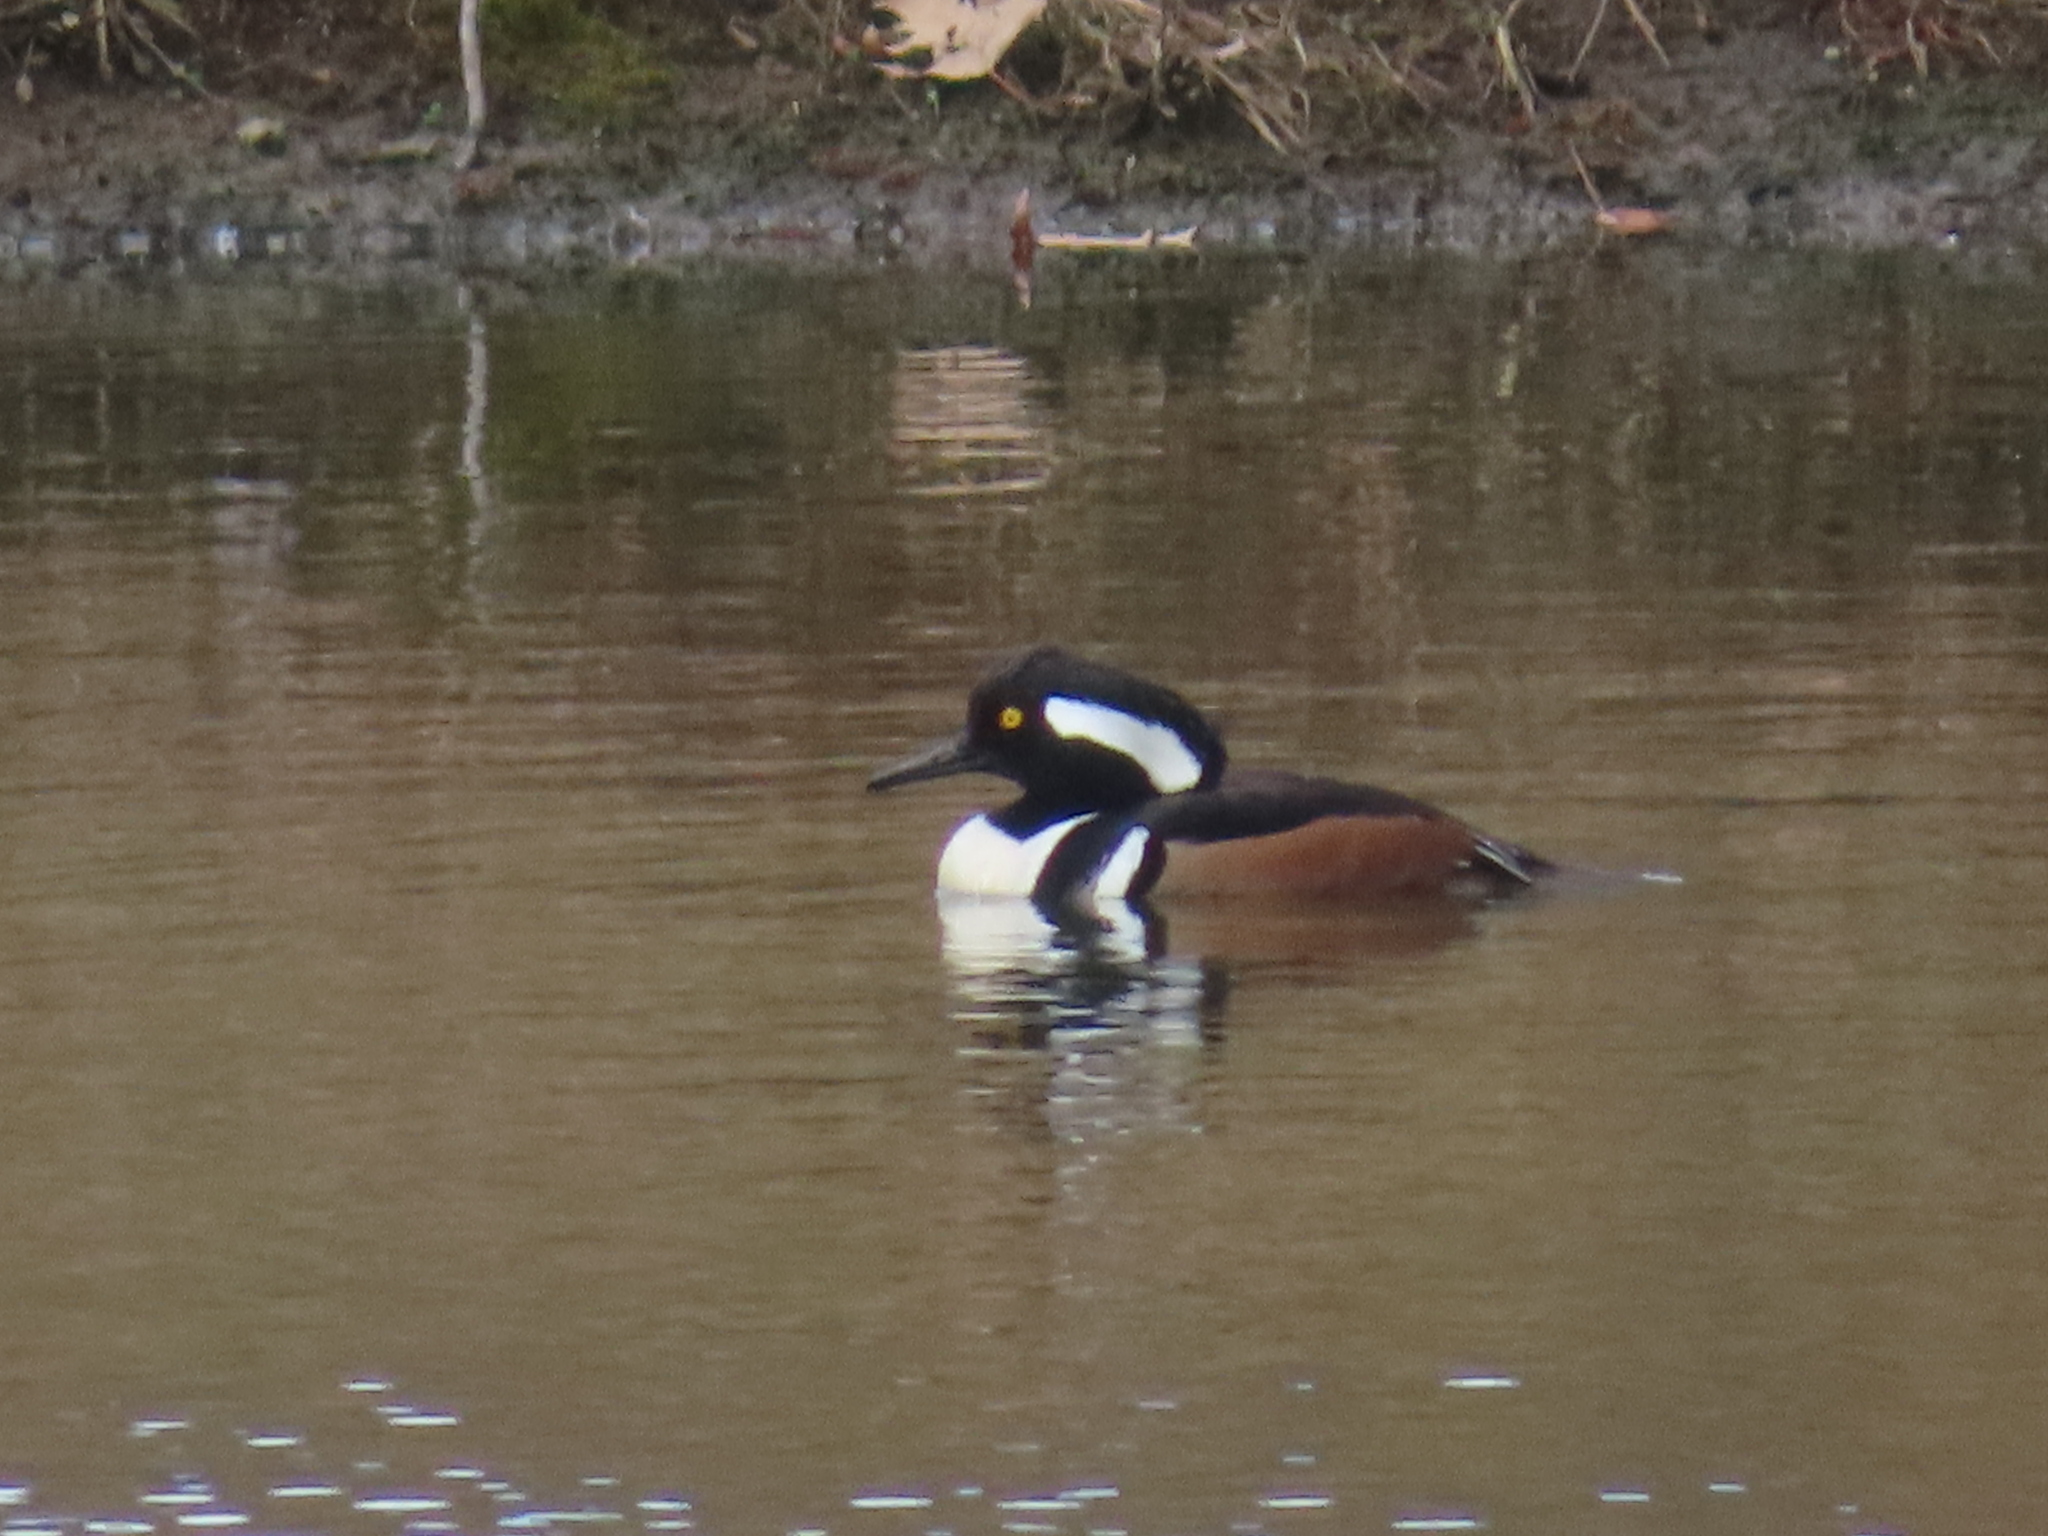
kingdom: Animalia
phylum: Chordata
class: Aves
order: Anseriformes
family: Anatidae
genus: Lophodytes
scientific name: Lophodytes cucullatus
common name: Hooded merganser
